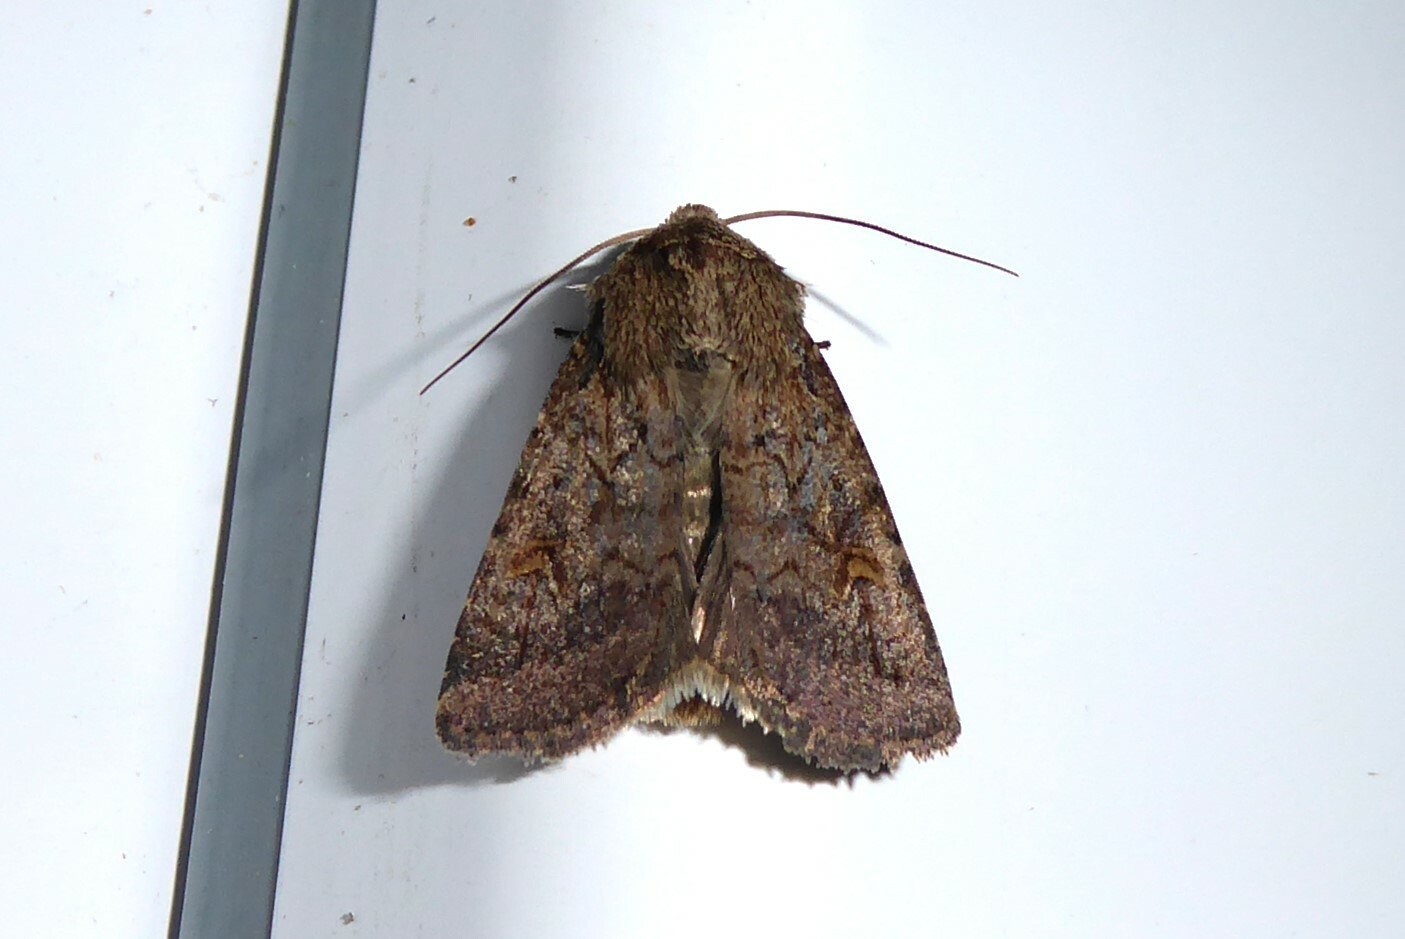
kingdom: Animalia
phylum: Arthropoda
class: Insecta
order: Lepidoptera
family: Noctuidae
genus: Proteuxoa
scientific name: Proteuxoa tetronycha
